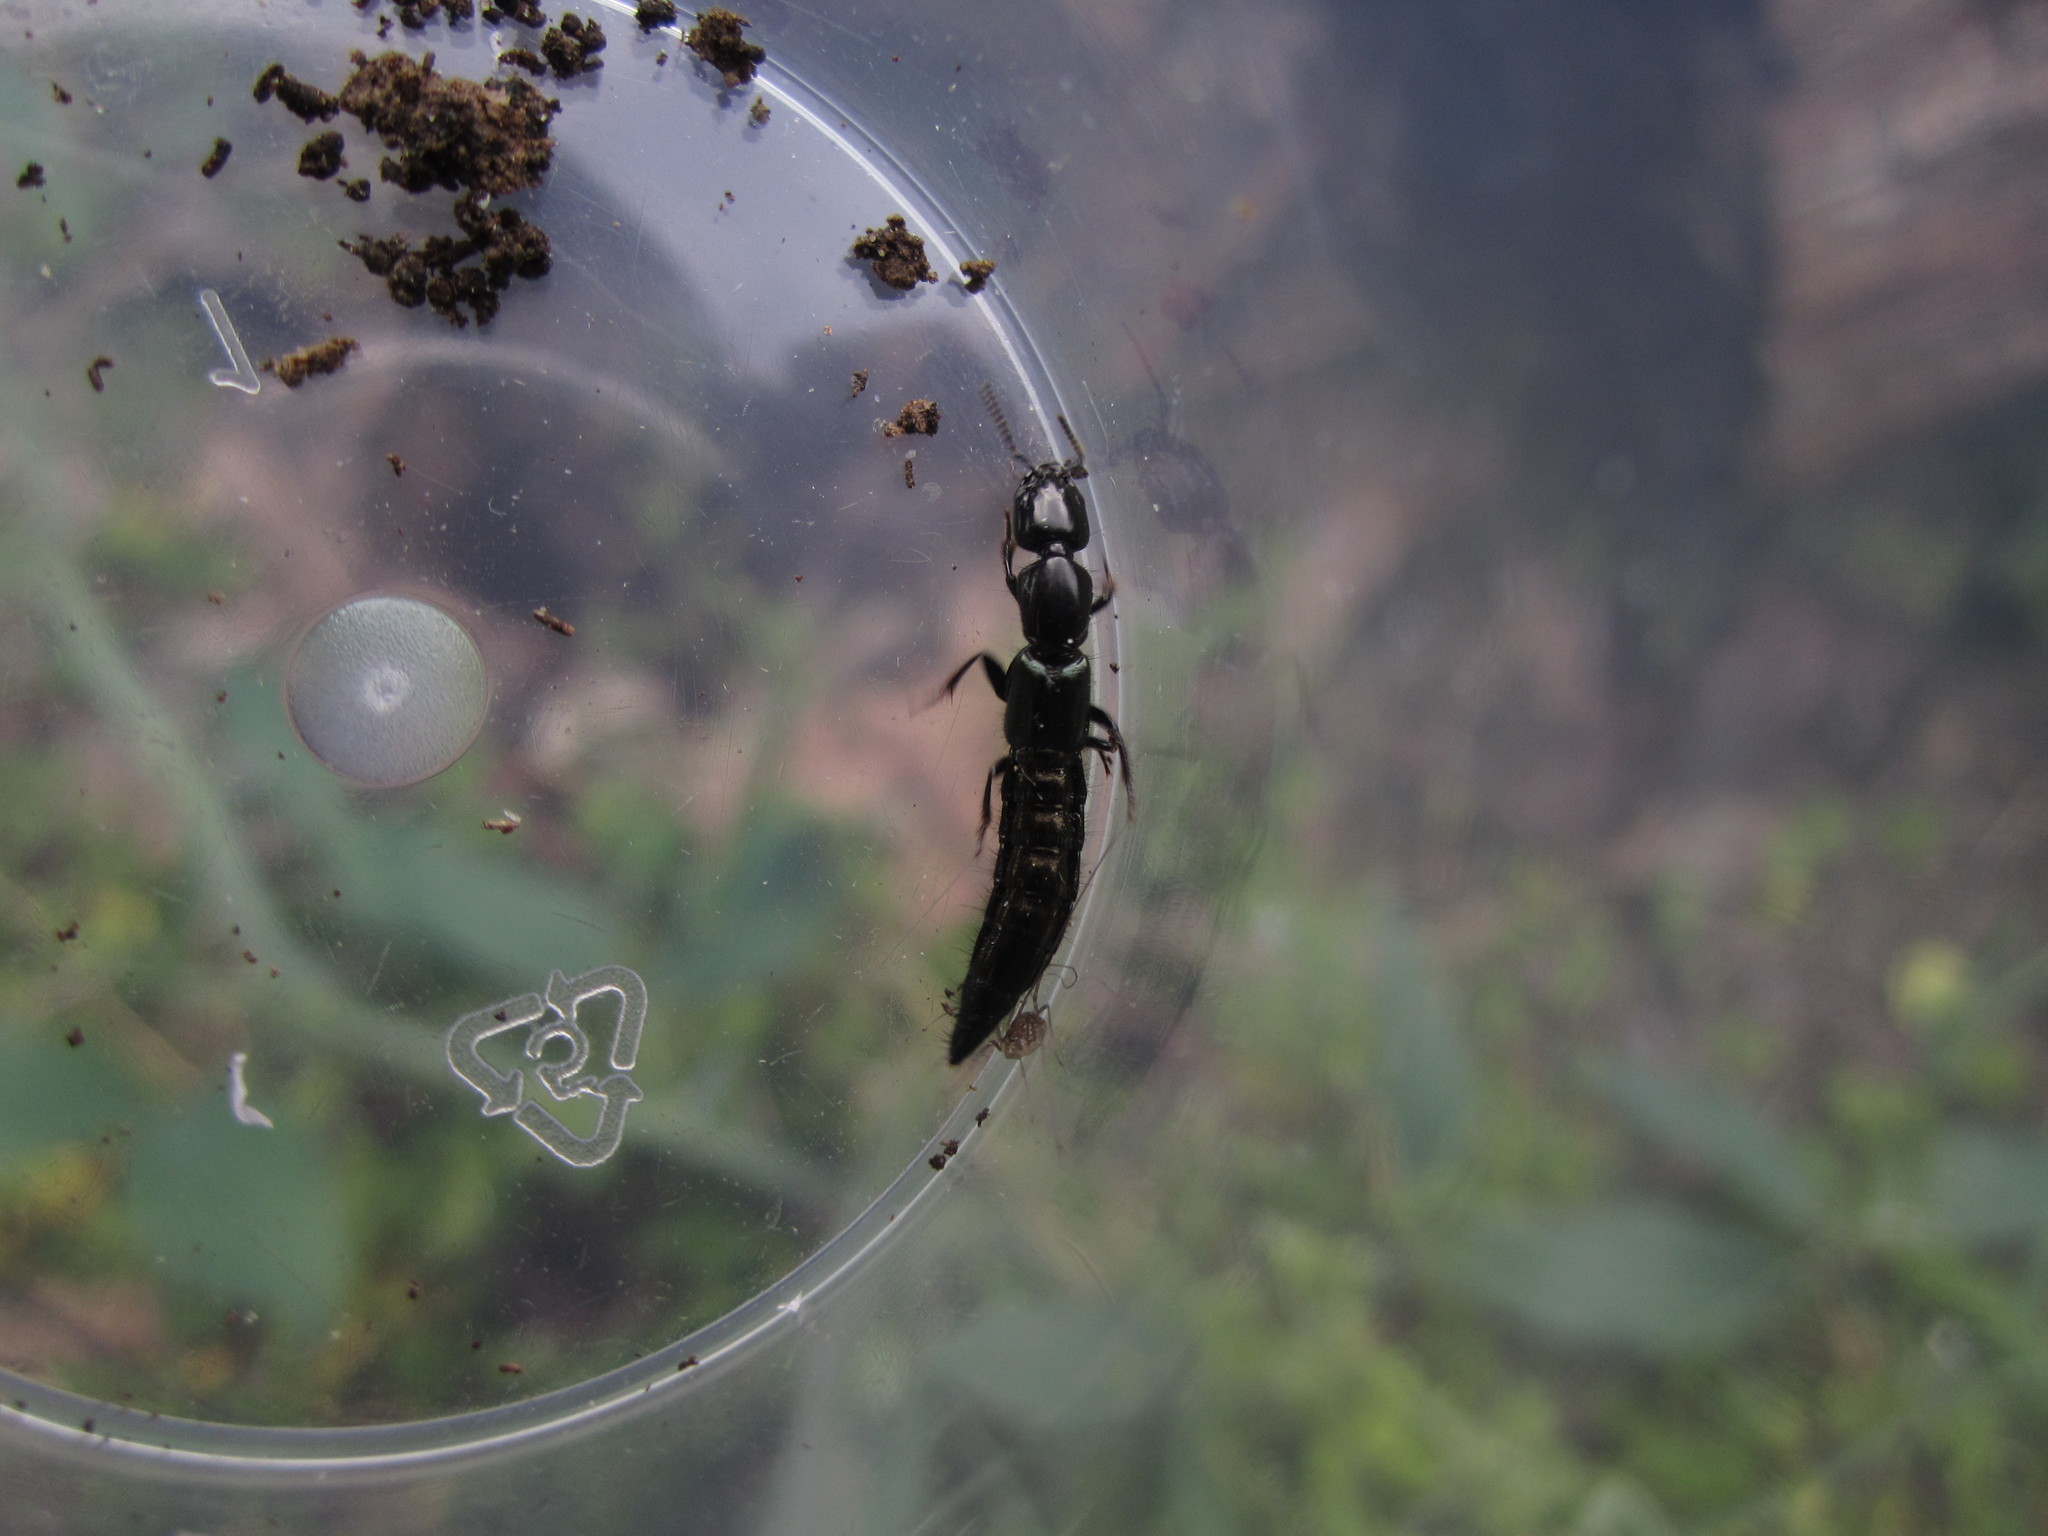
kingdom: Animalia
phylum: Arthropoda
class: Insecta
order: Coleoptera
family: Staphylinidae
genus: Thyreocephalus
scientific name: Thyreocephalus orthodoxus
